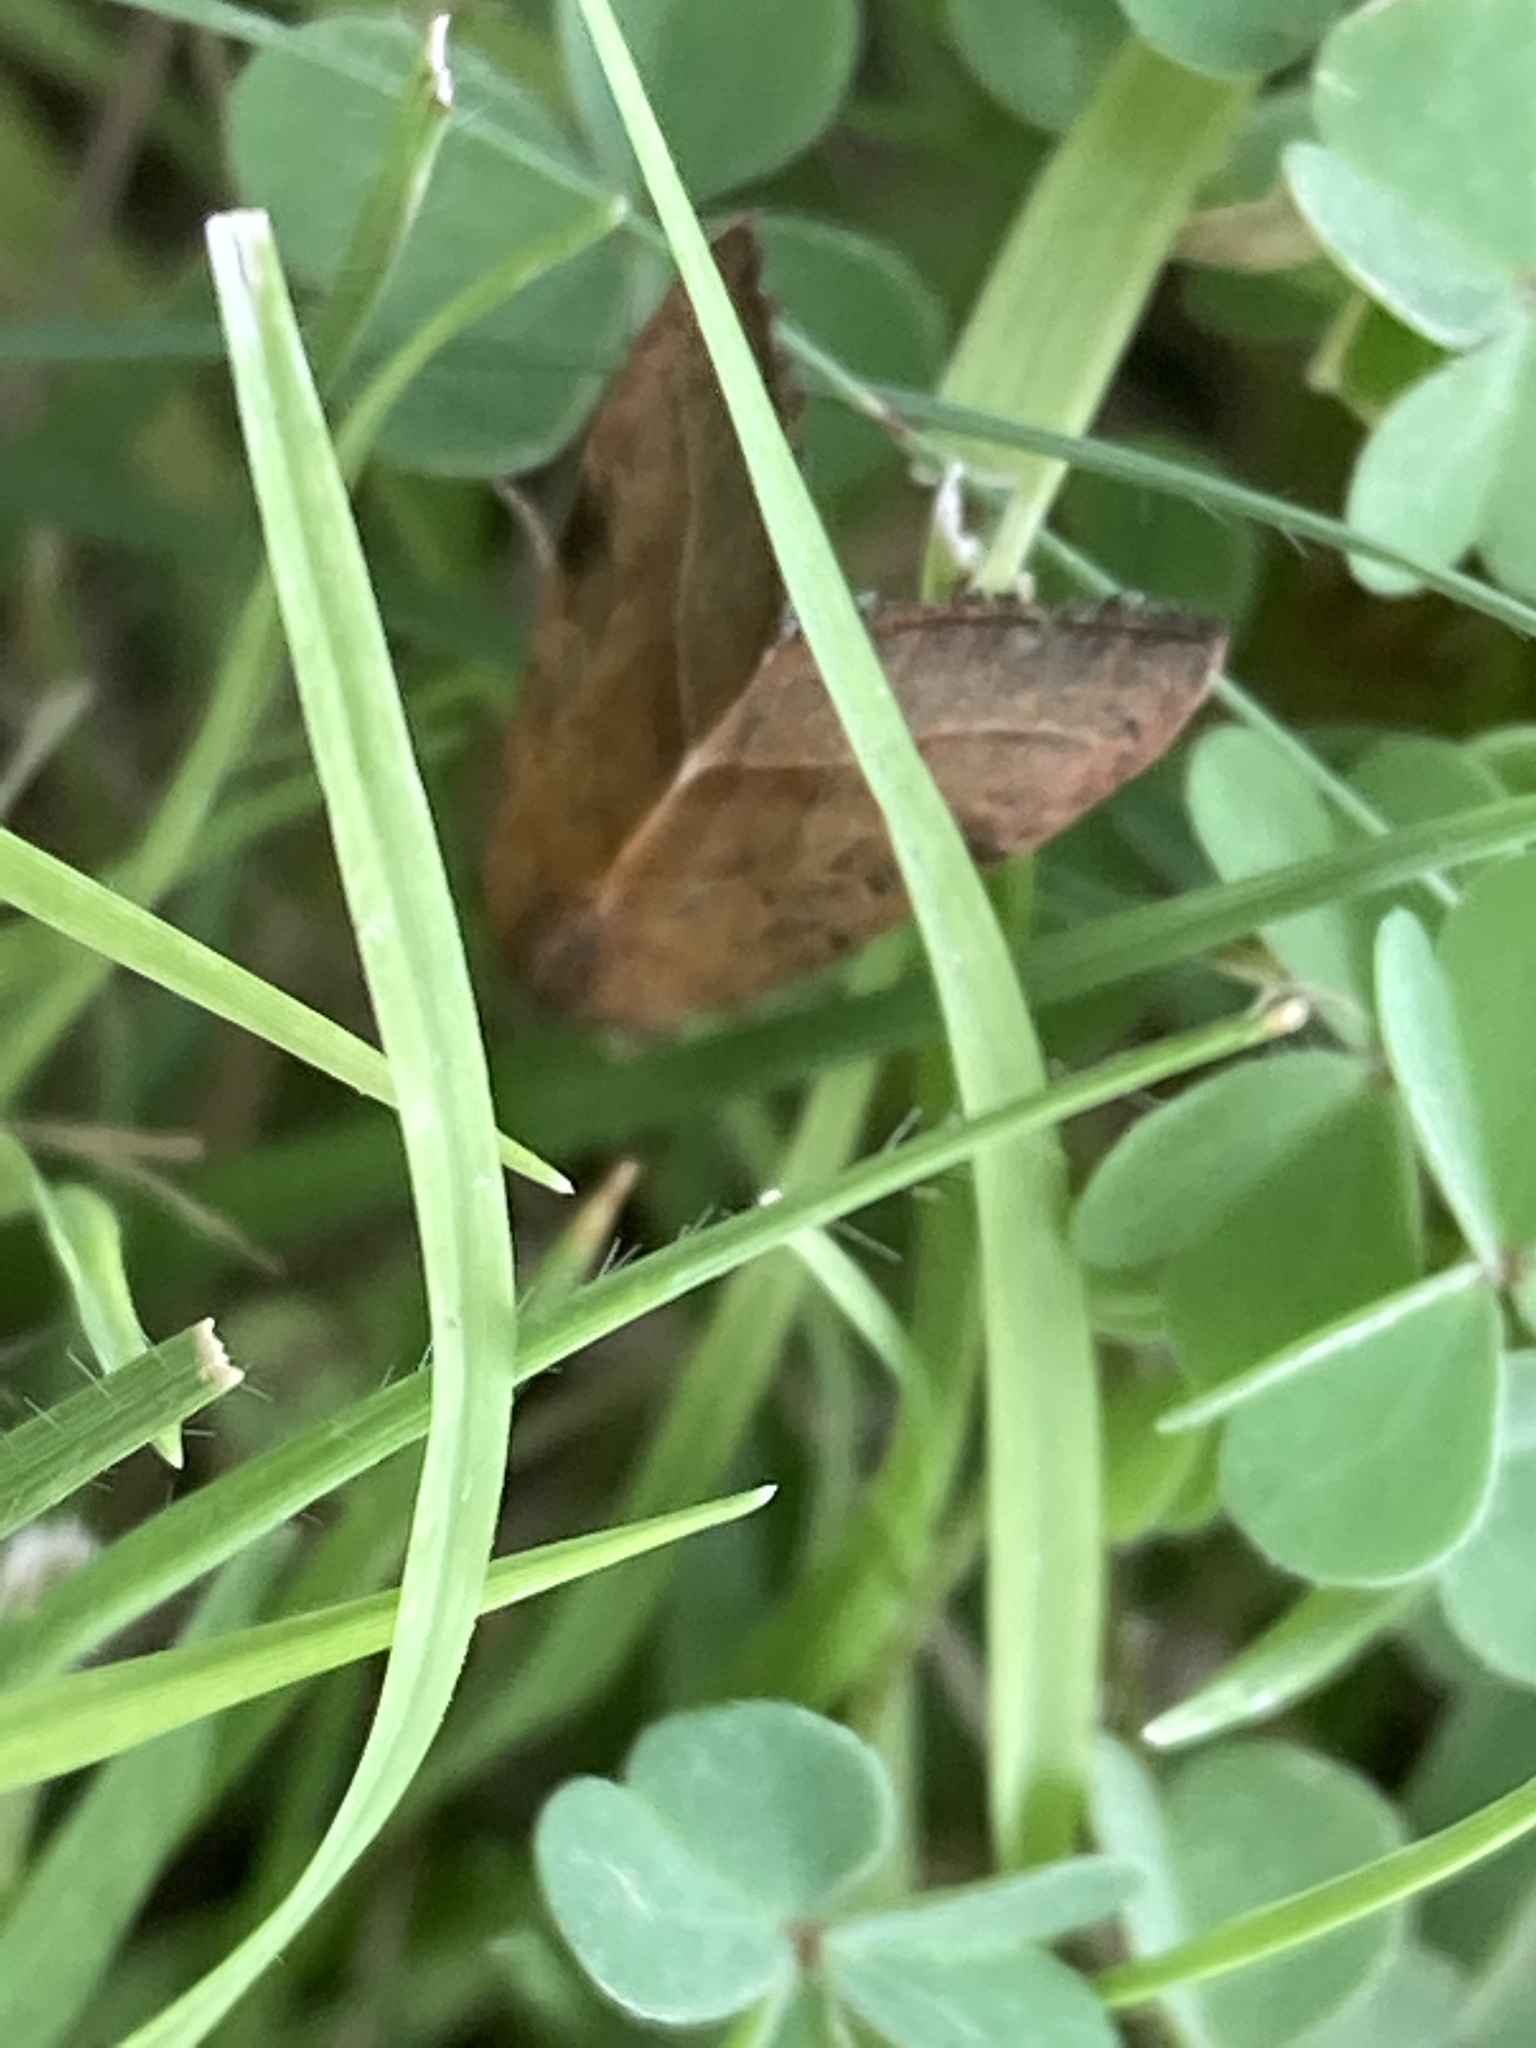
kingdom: Animalia
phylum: Arthropoda
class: Insecta
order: Lepidoptera
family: Noctuidae
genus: Galgula
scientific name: Galgula partita
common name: Wedgeling
